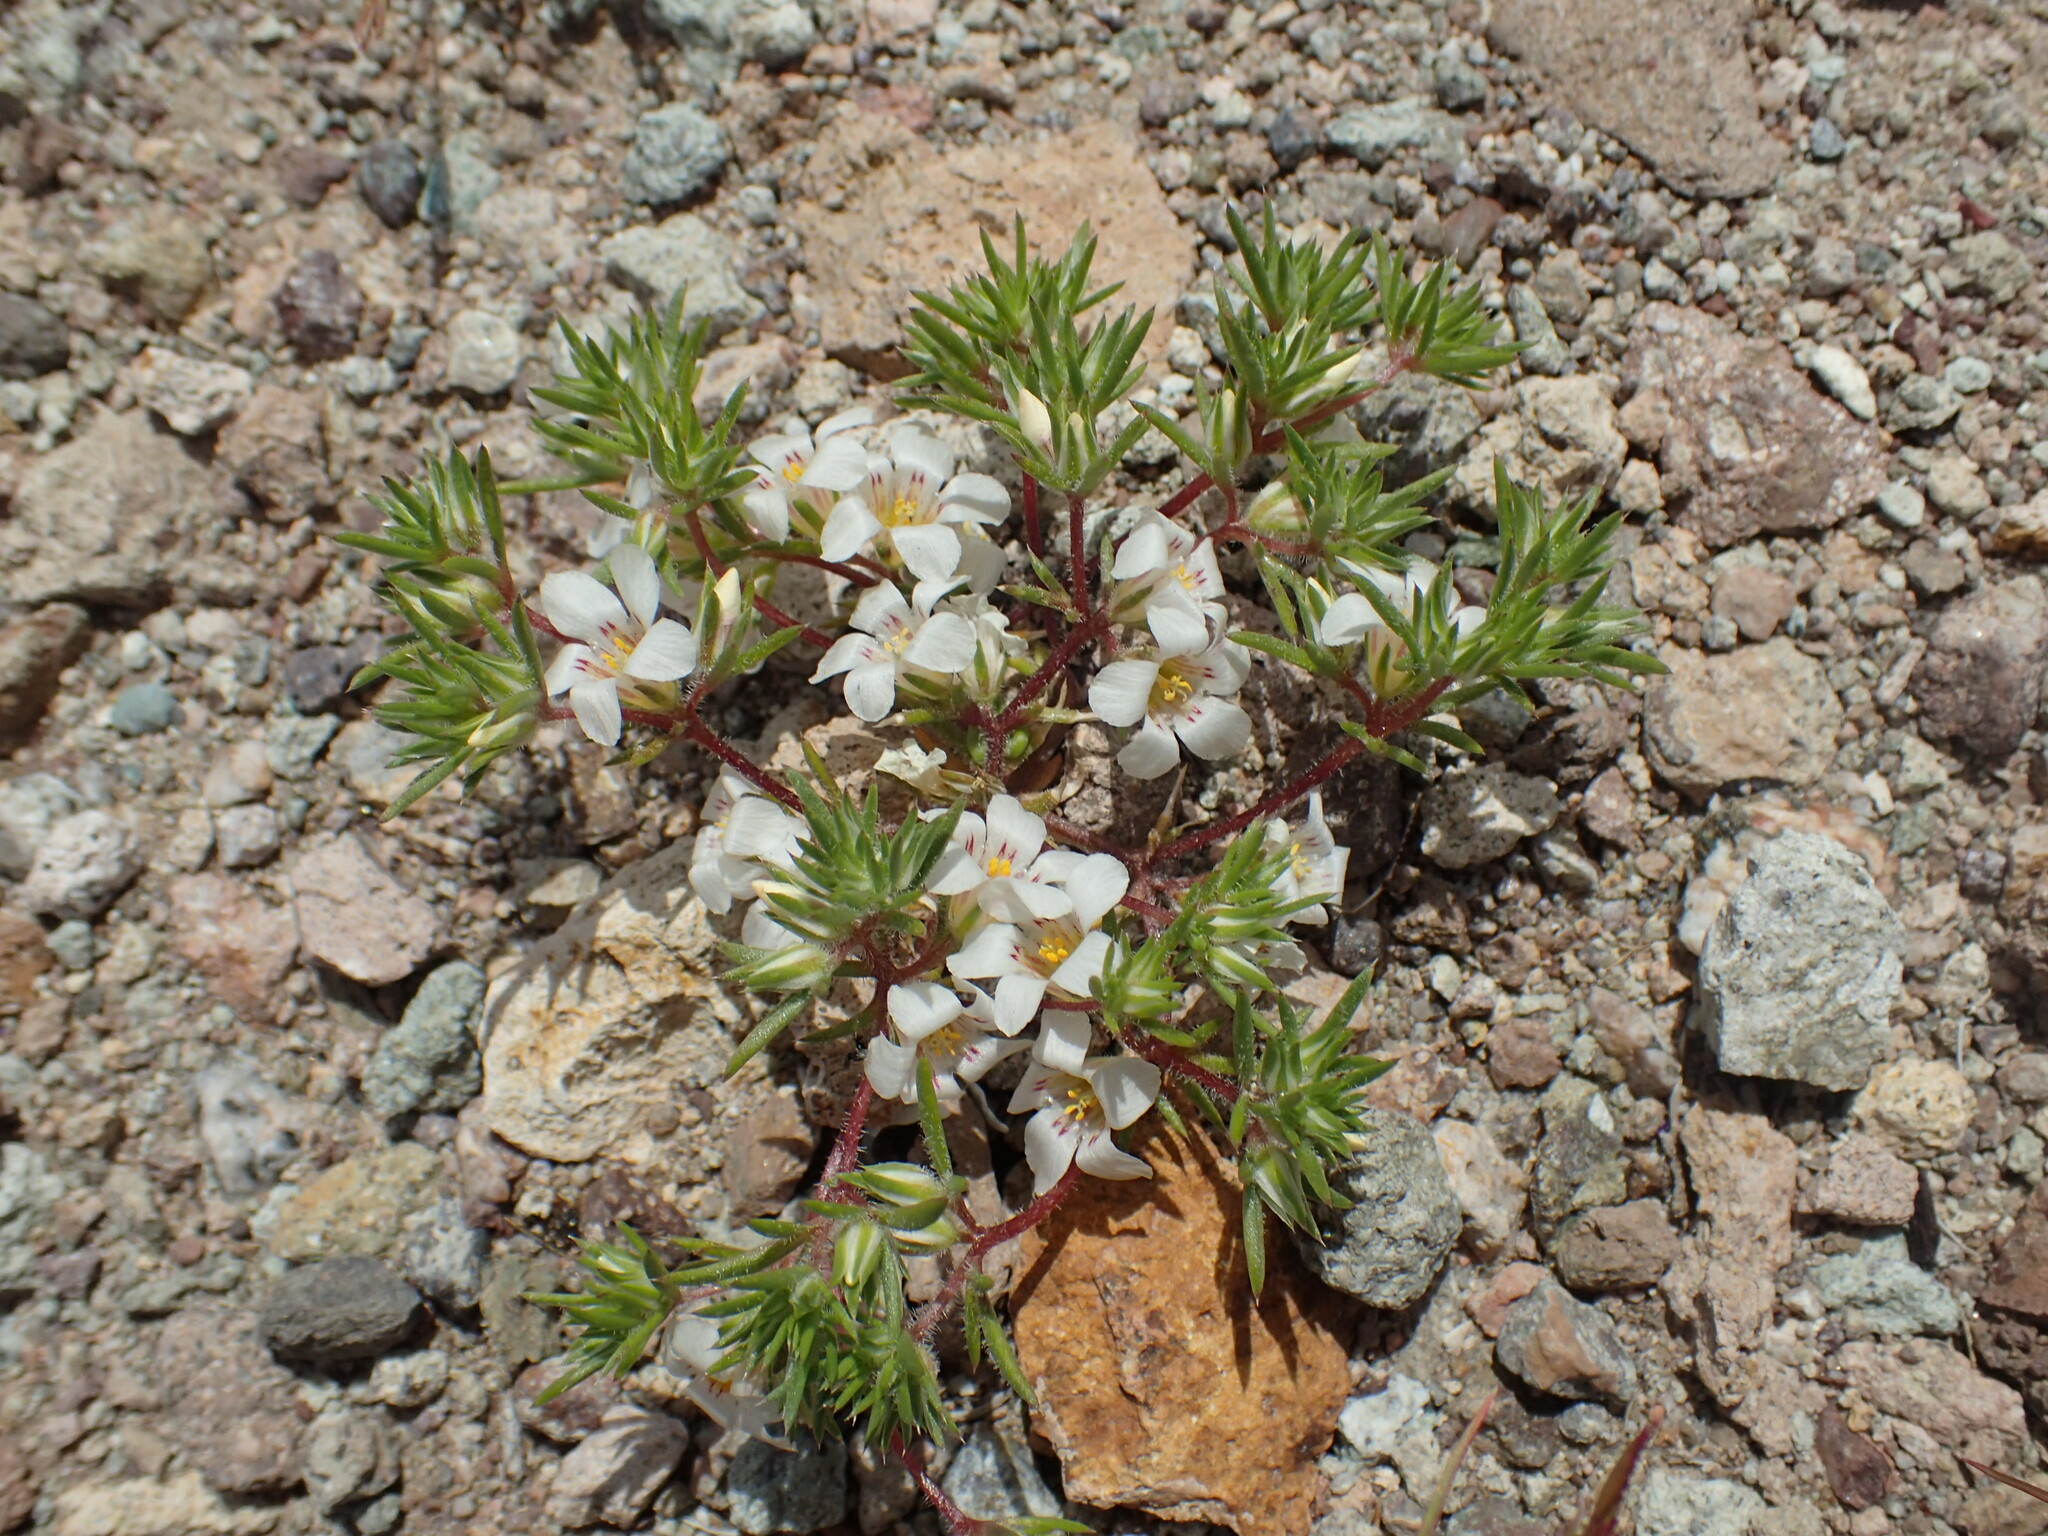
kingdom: Plantae
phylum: Tracheophyta
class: Magnoliopsida
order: Ericales
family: Polemoniaceae
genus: Linanthus
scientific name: Linanthus demissus
